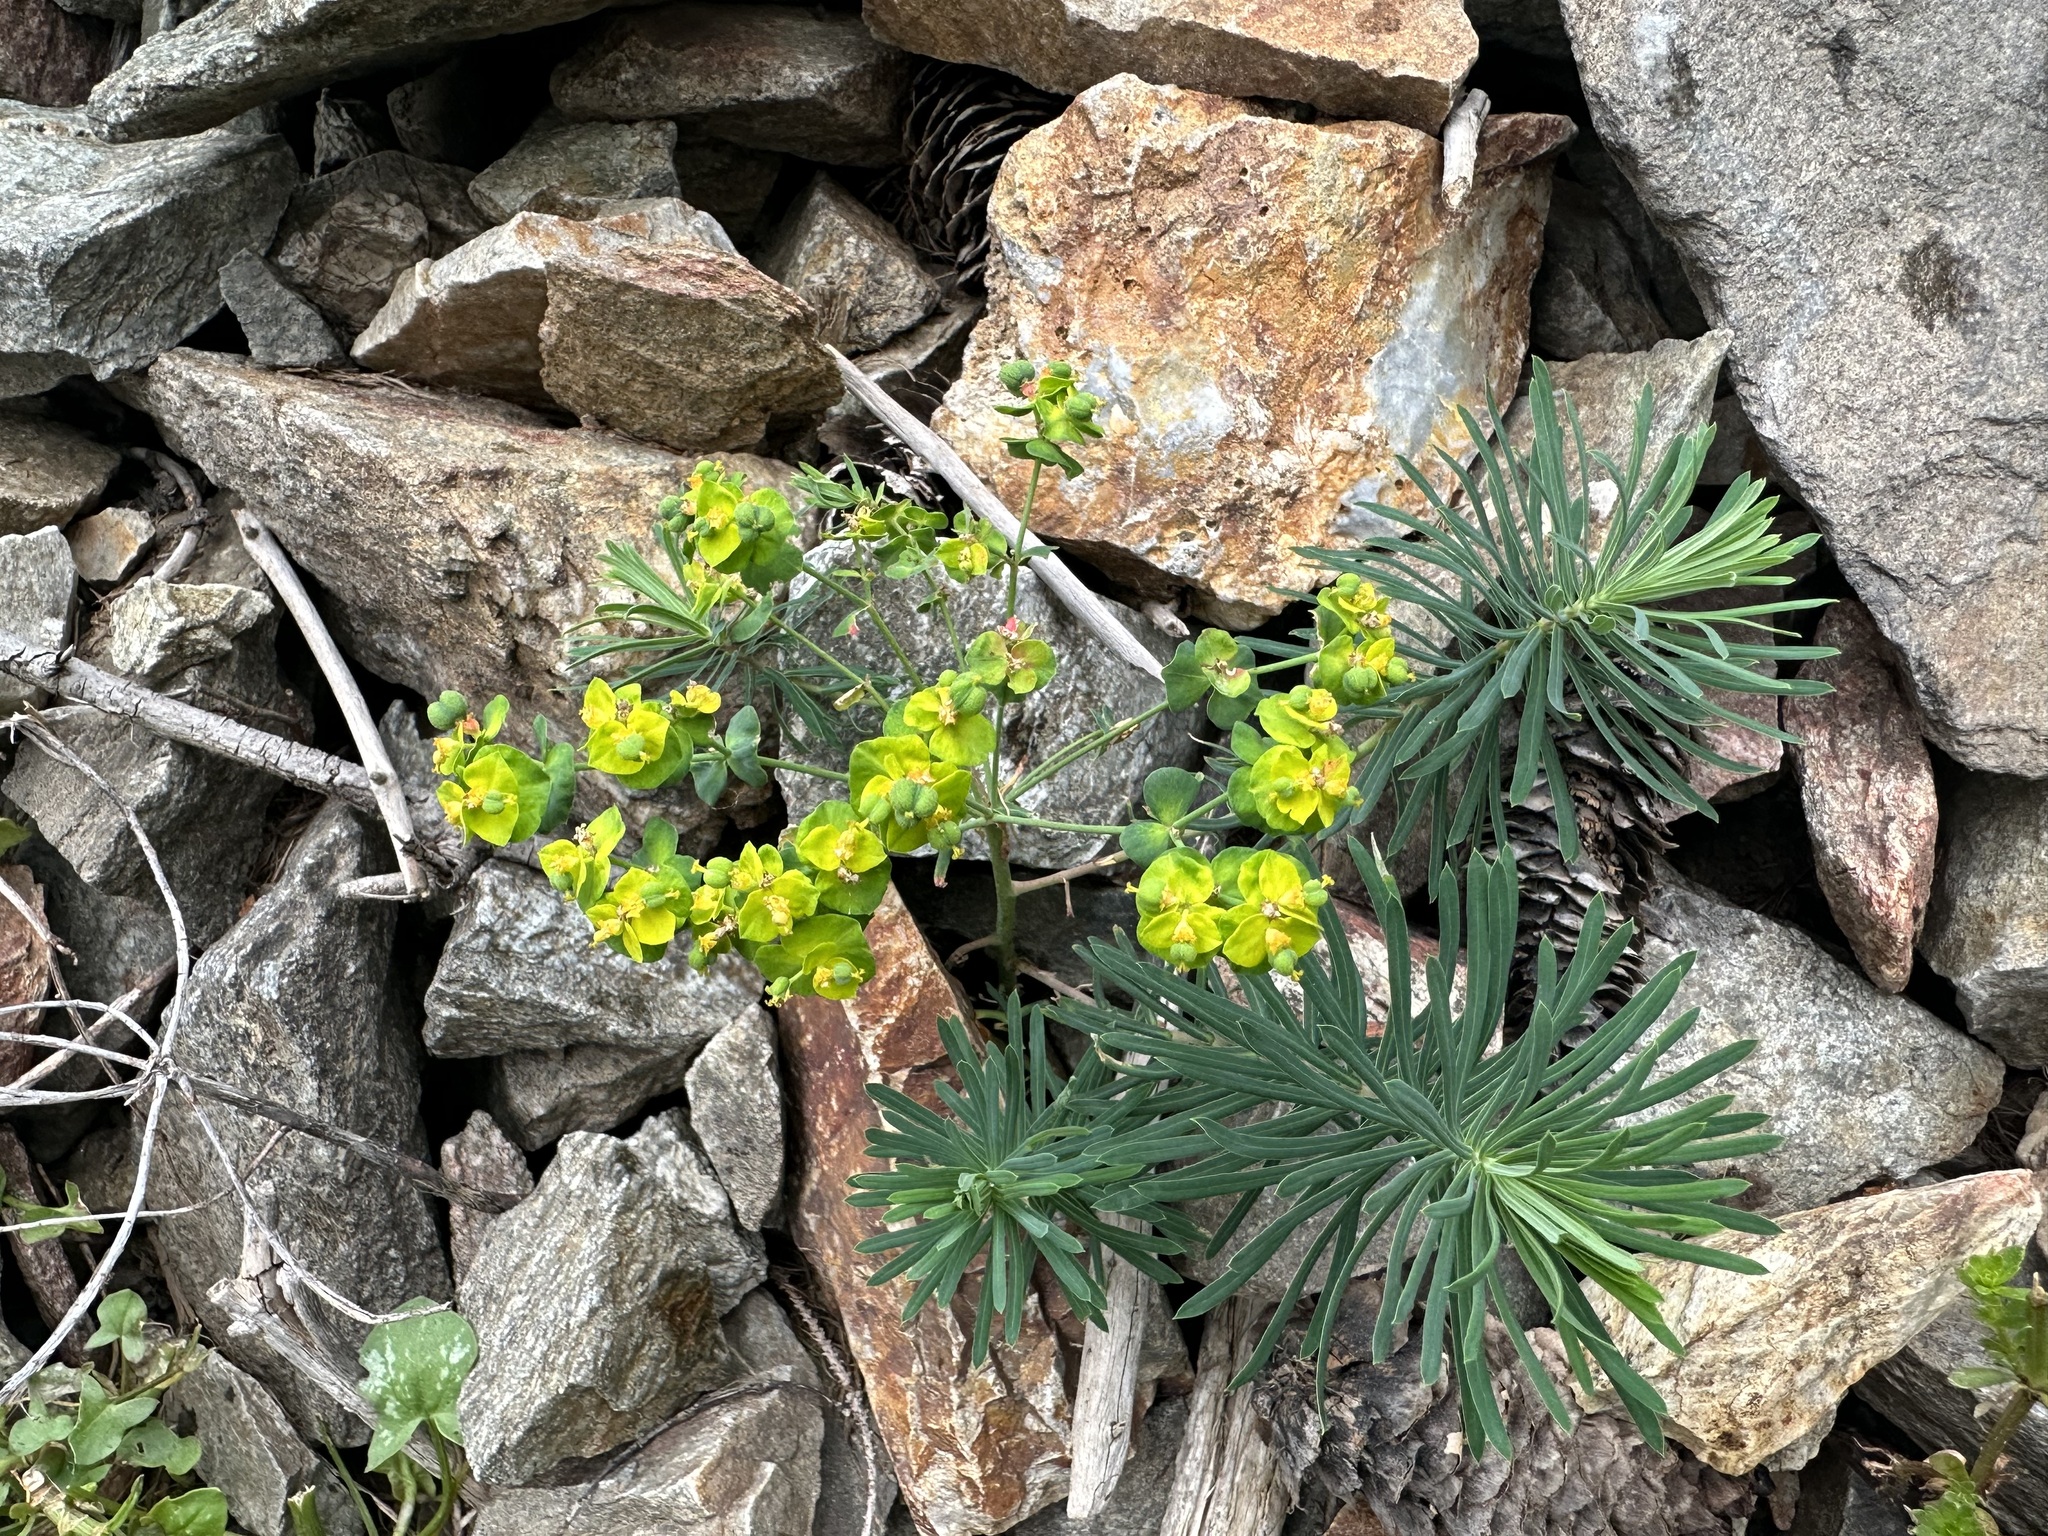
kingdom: Plantae
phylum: Tracheophyta
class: Magnoliopsida
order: Malpighiales
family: Euphorbiaceae
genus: Euphorbia
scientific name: Euphorbia cyparissias
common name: Cypress spurge
